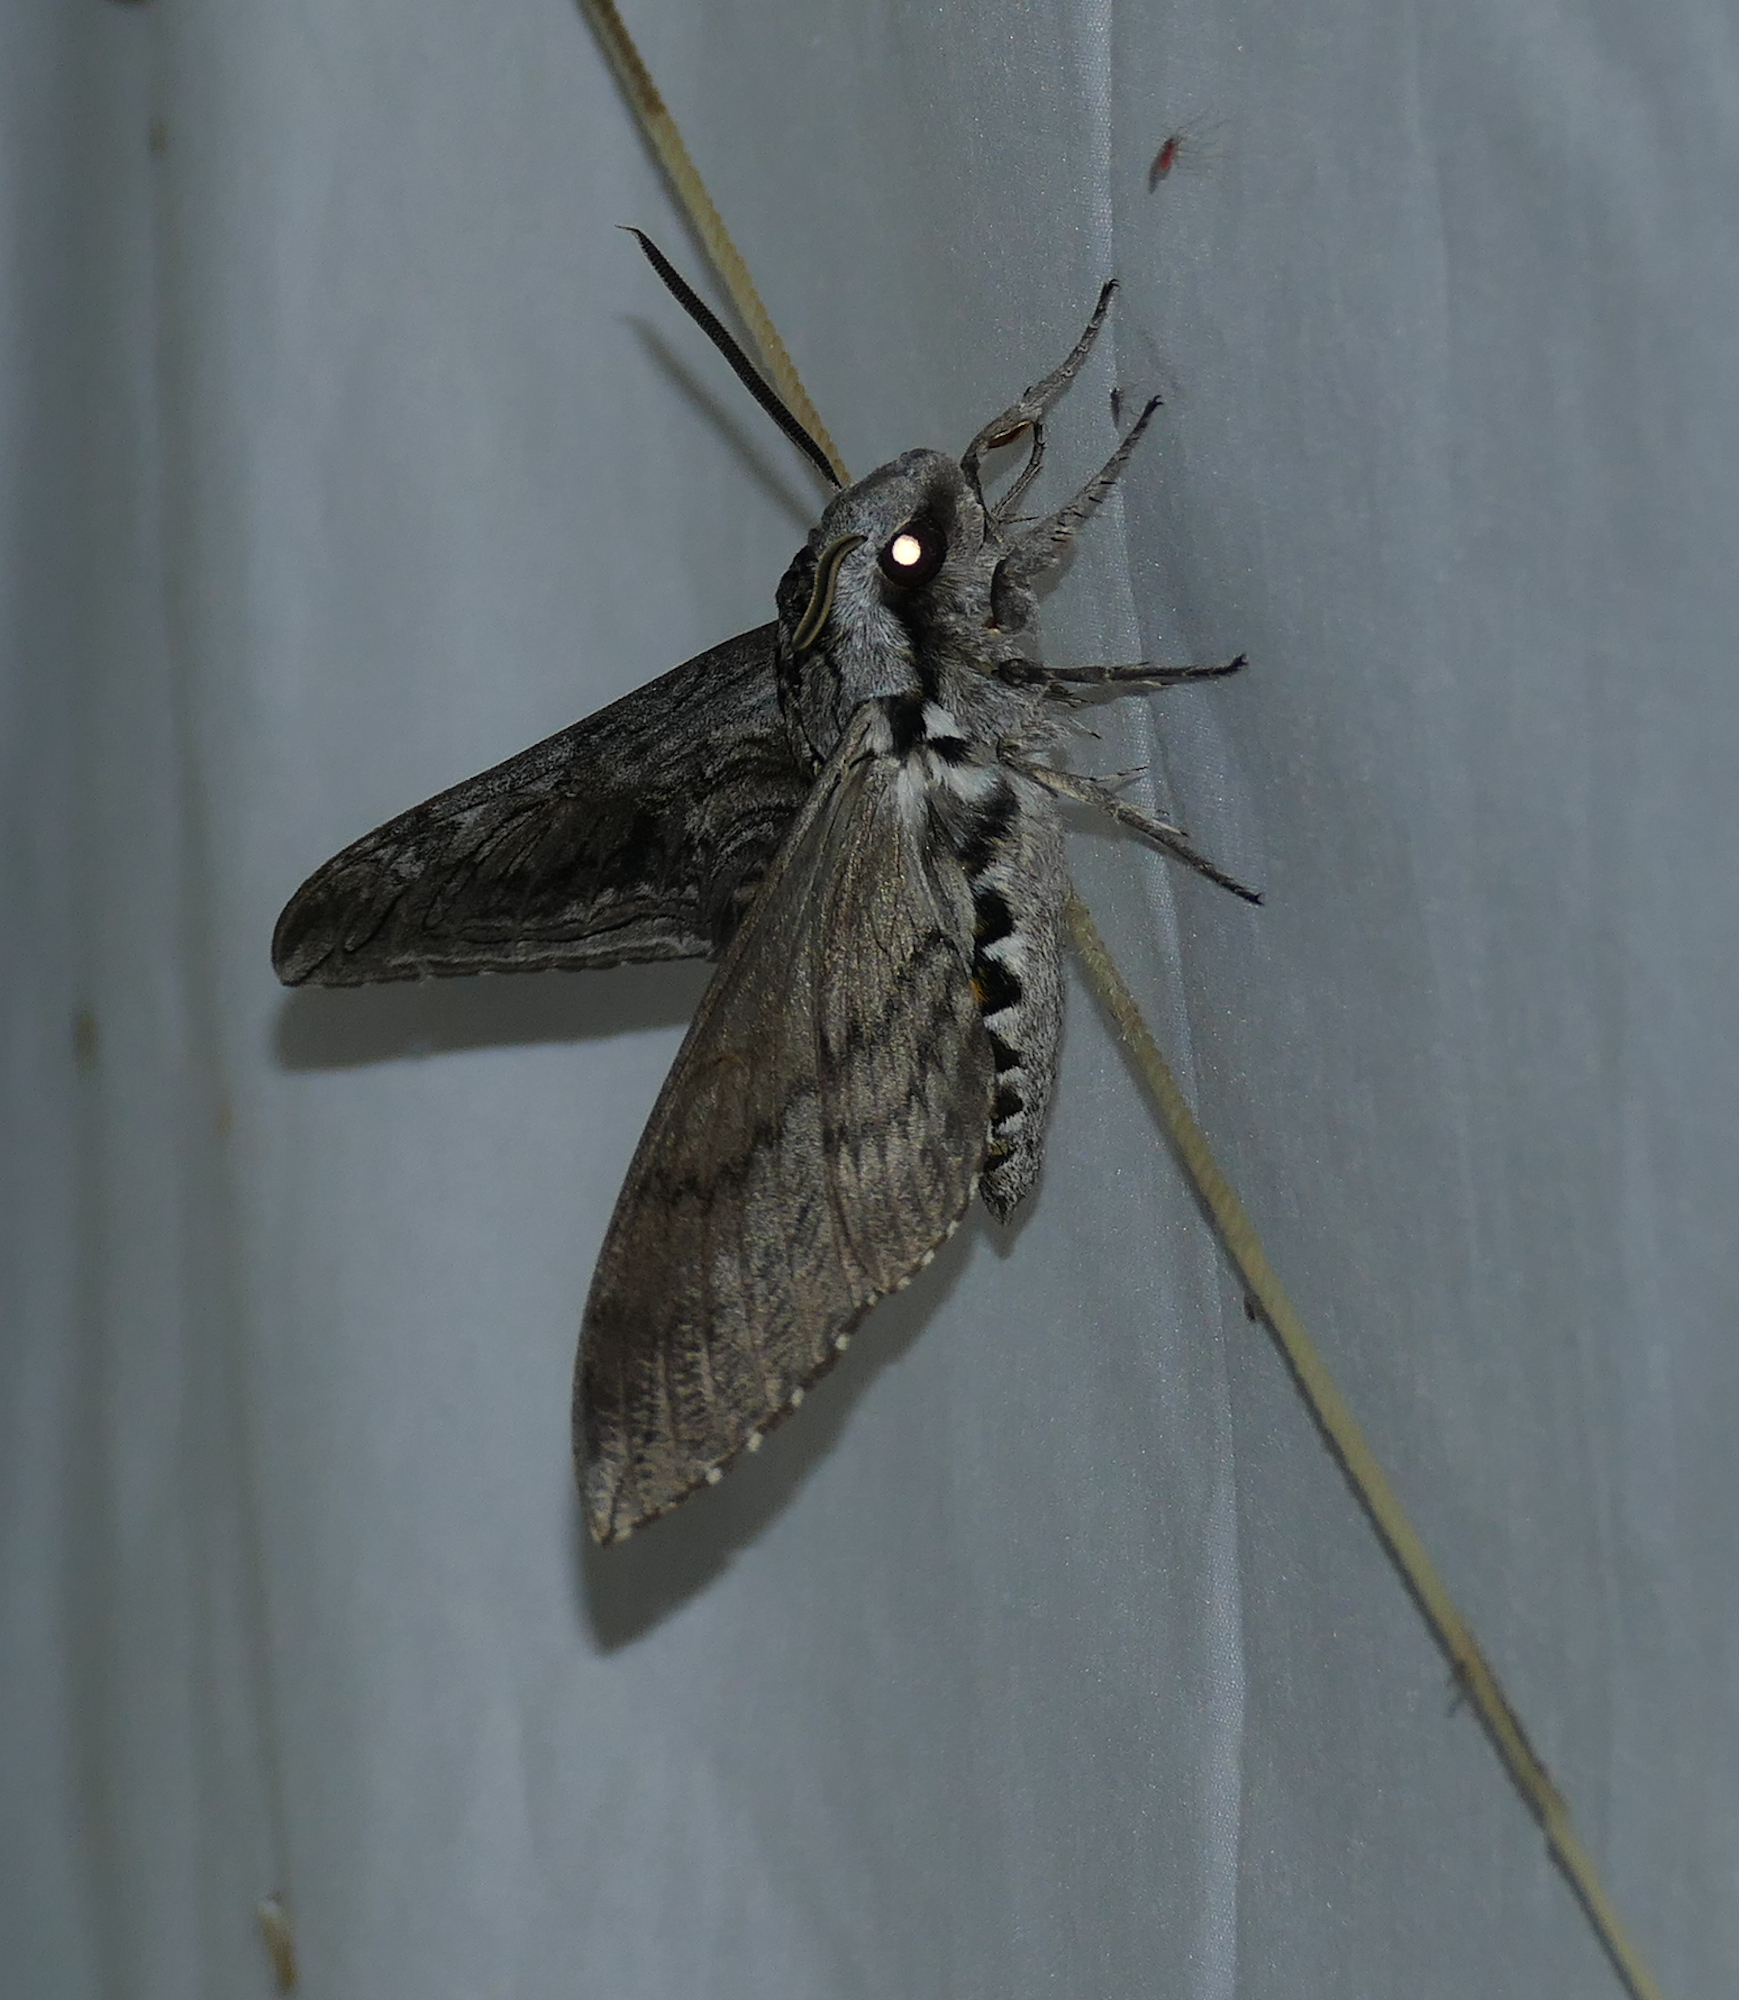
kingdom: Animalia
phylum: Arthropoda
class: Insecta
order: Lepidoptera
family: Sphingidae
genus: Manduca
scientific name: Manduca quinquemaculatus
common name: Five-spotted hawk-moth
